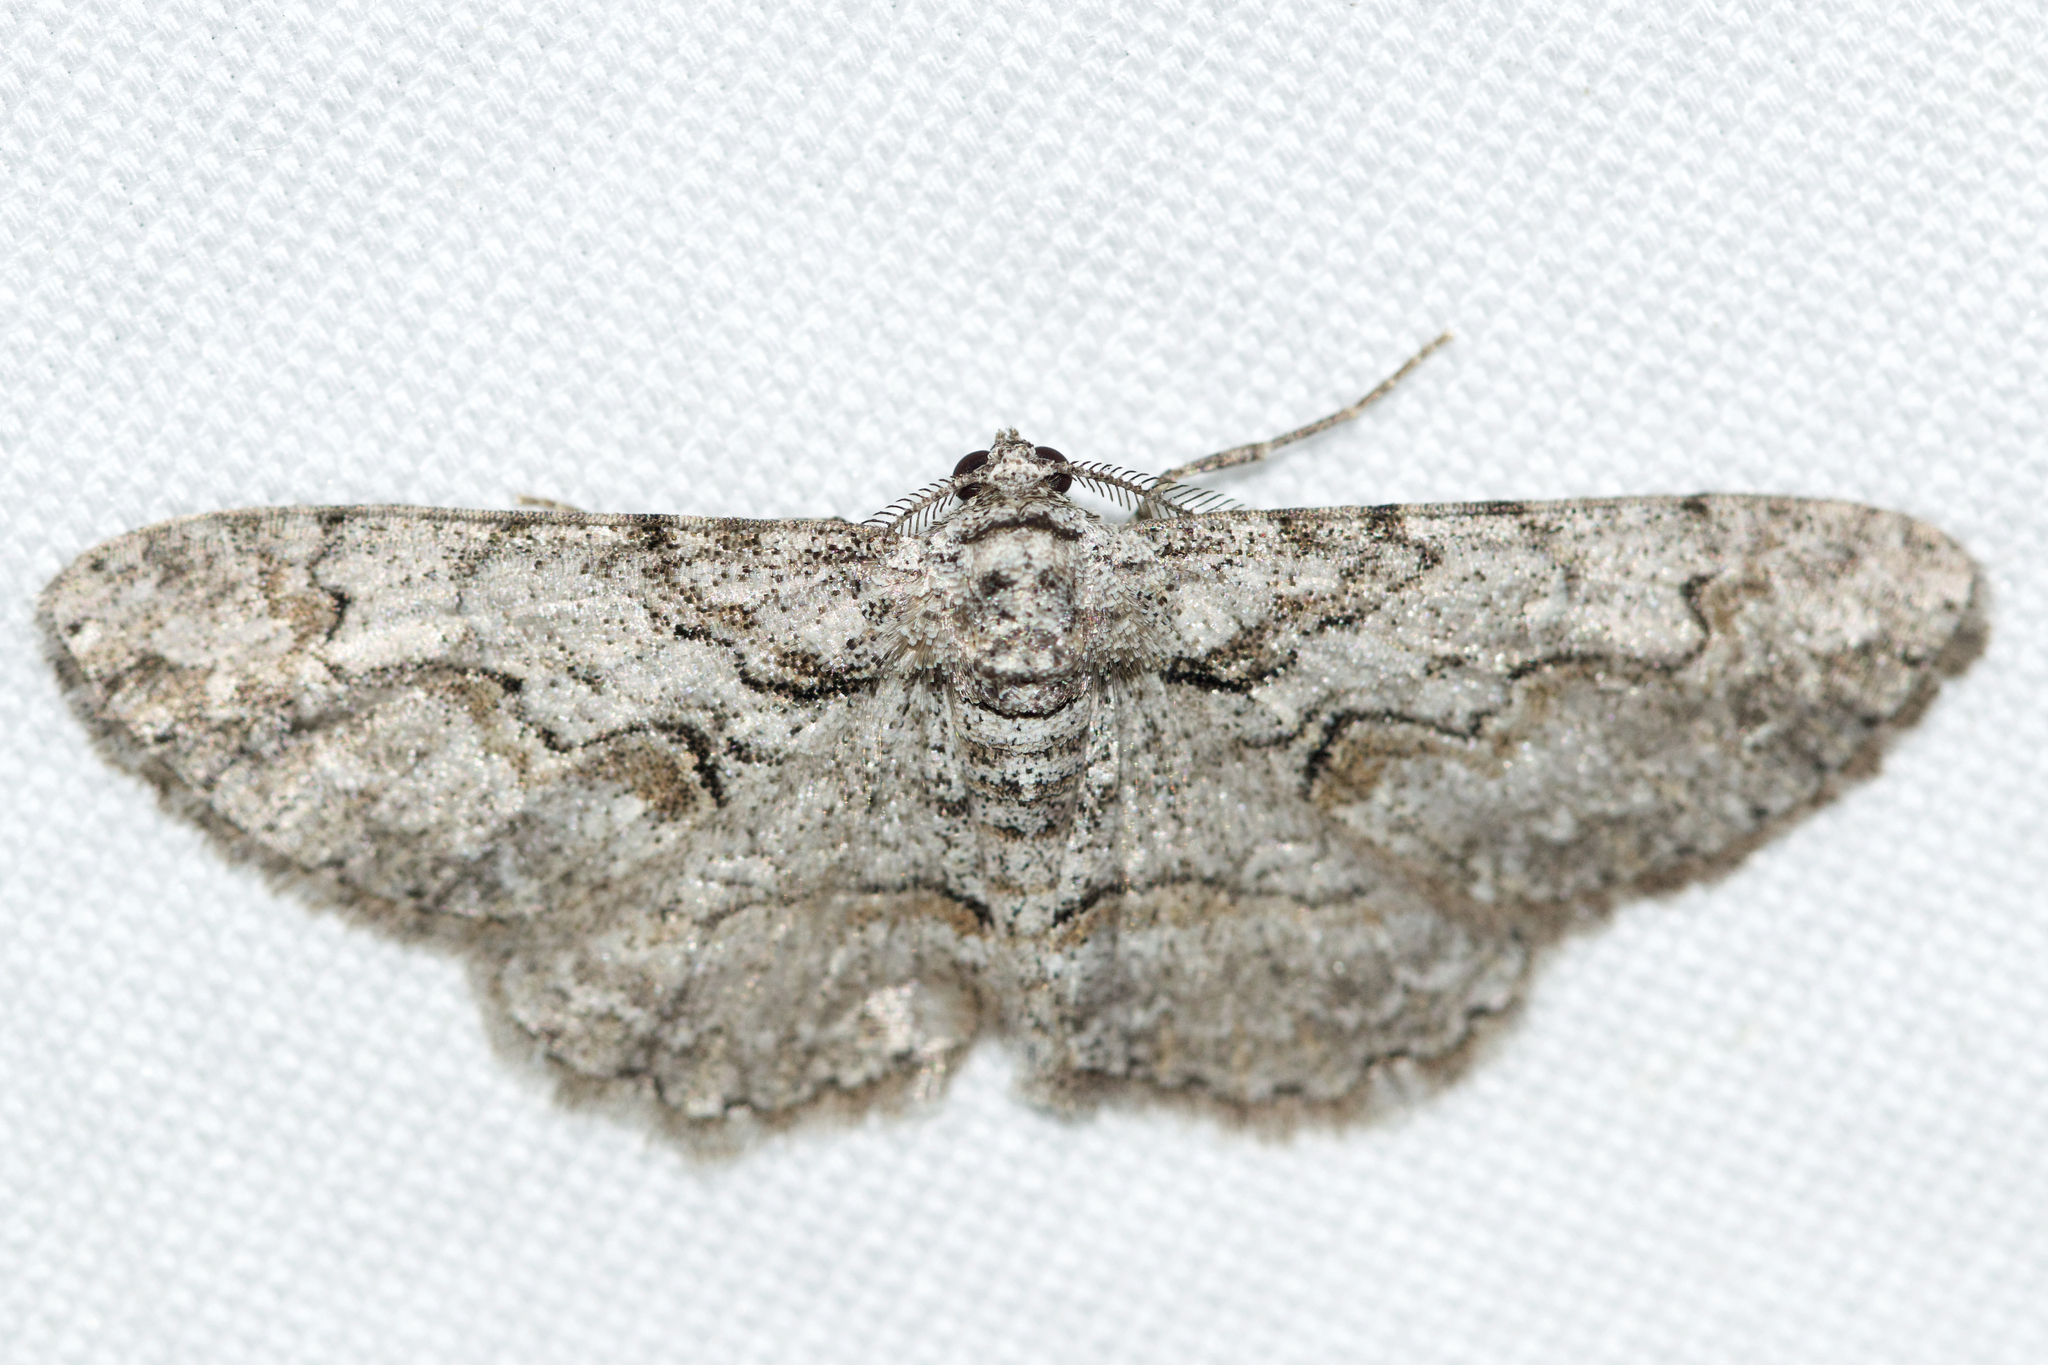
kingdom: Animalia
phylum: Arthropoda
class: Insecta
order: Lepidoptera
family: Geometridae
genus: Iridopsis
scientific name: Iridopsis defectaria
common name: Brown-shaded gray
